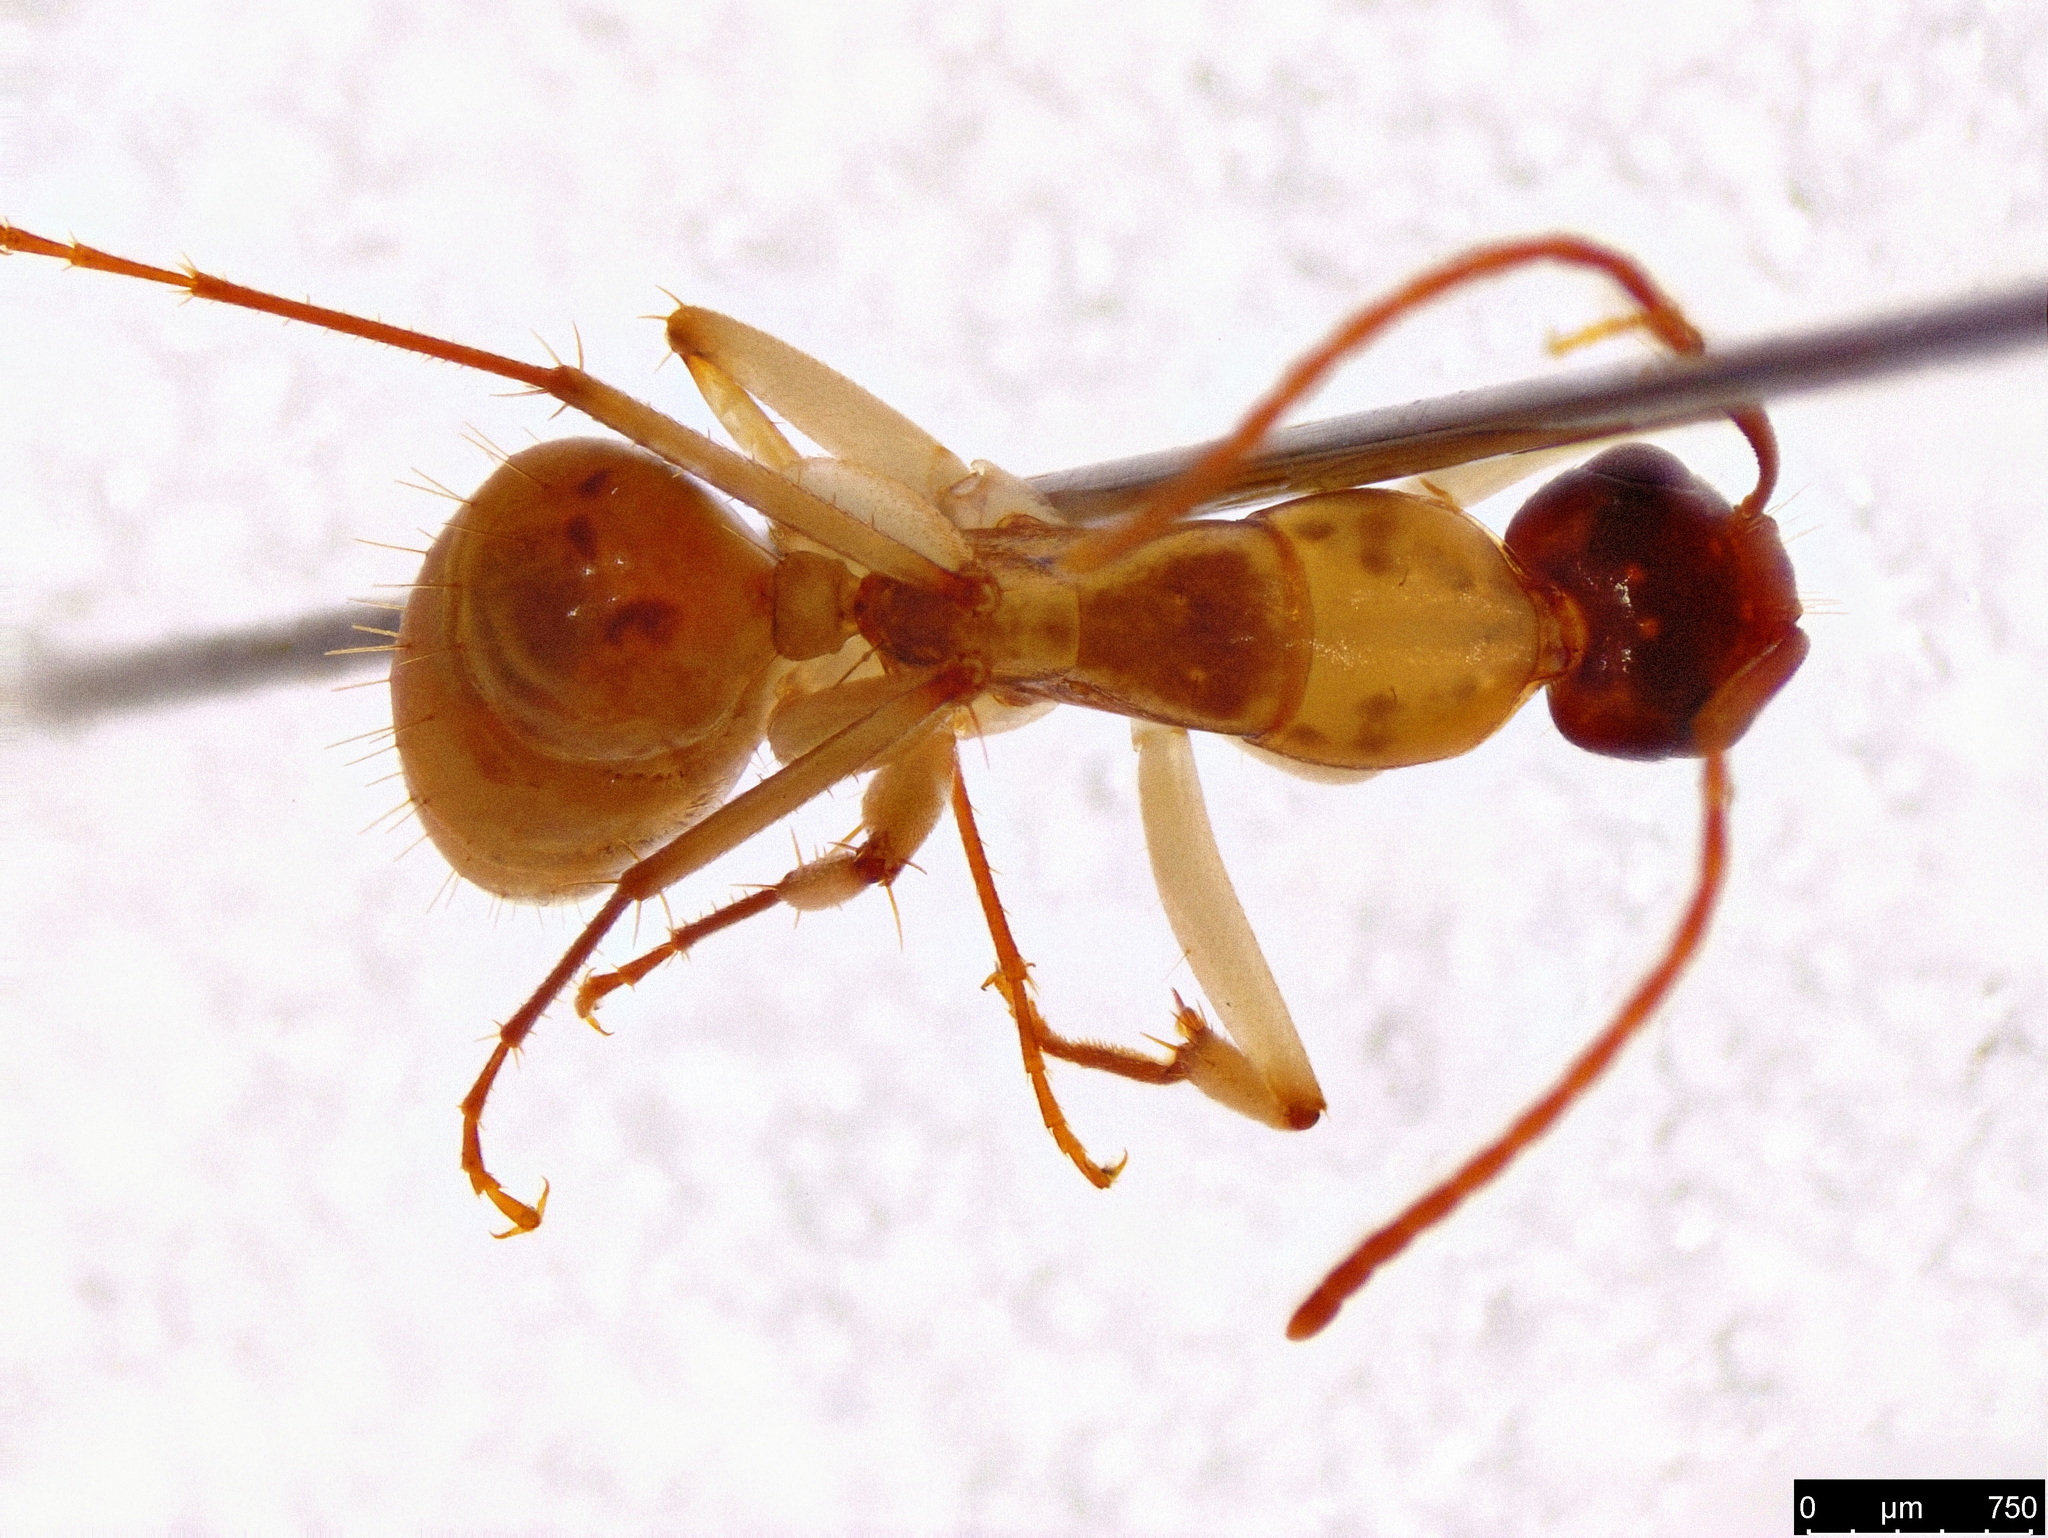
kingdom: Animalia
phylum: Arthropoda
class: Insecta
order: Hymenoptera
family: Formicidae
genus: Camponotus
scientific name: Camponotus claripes
